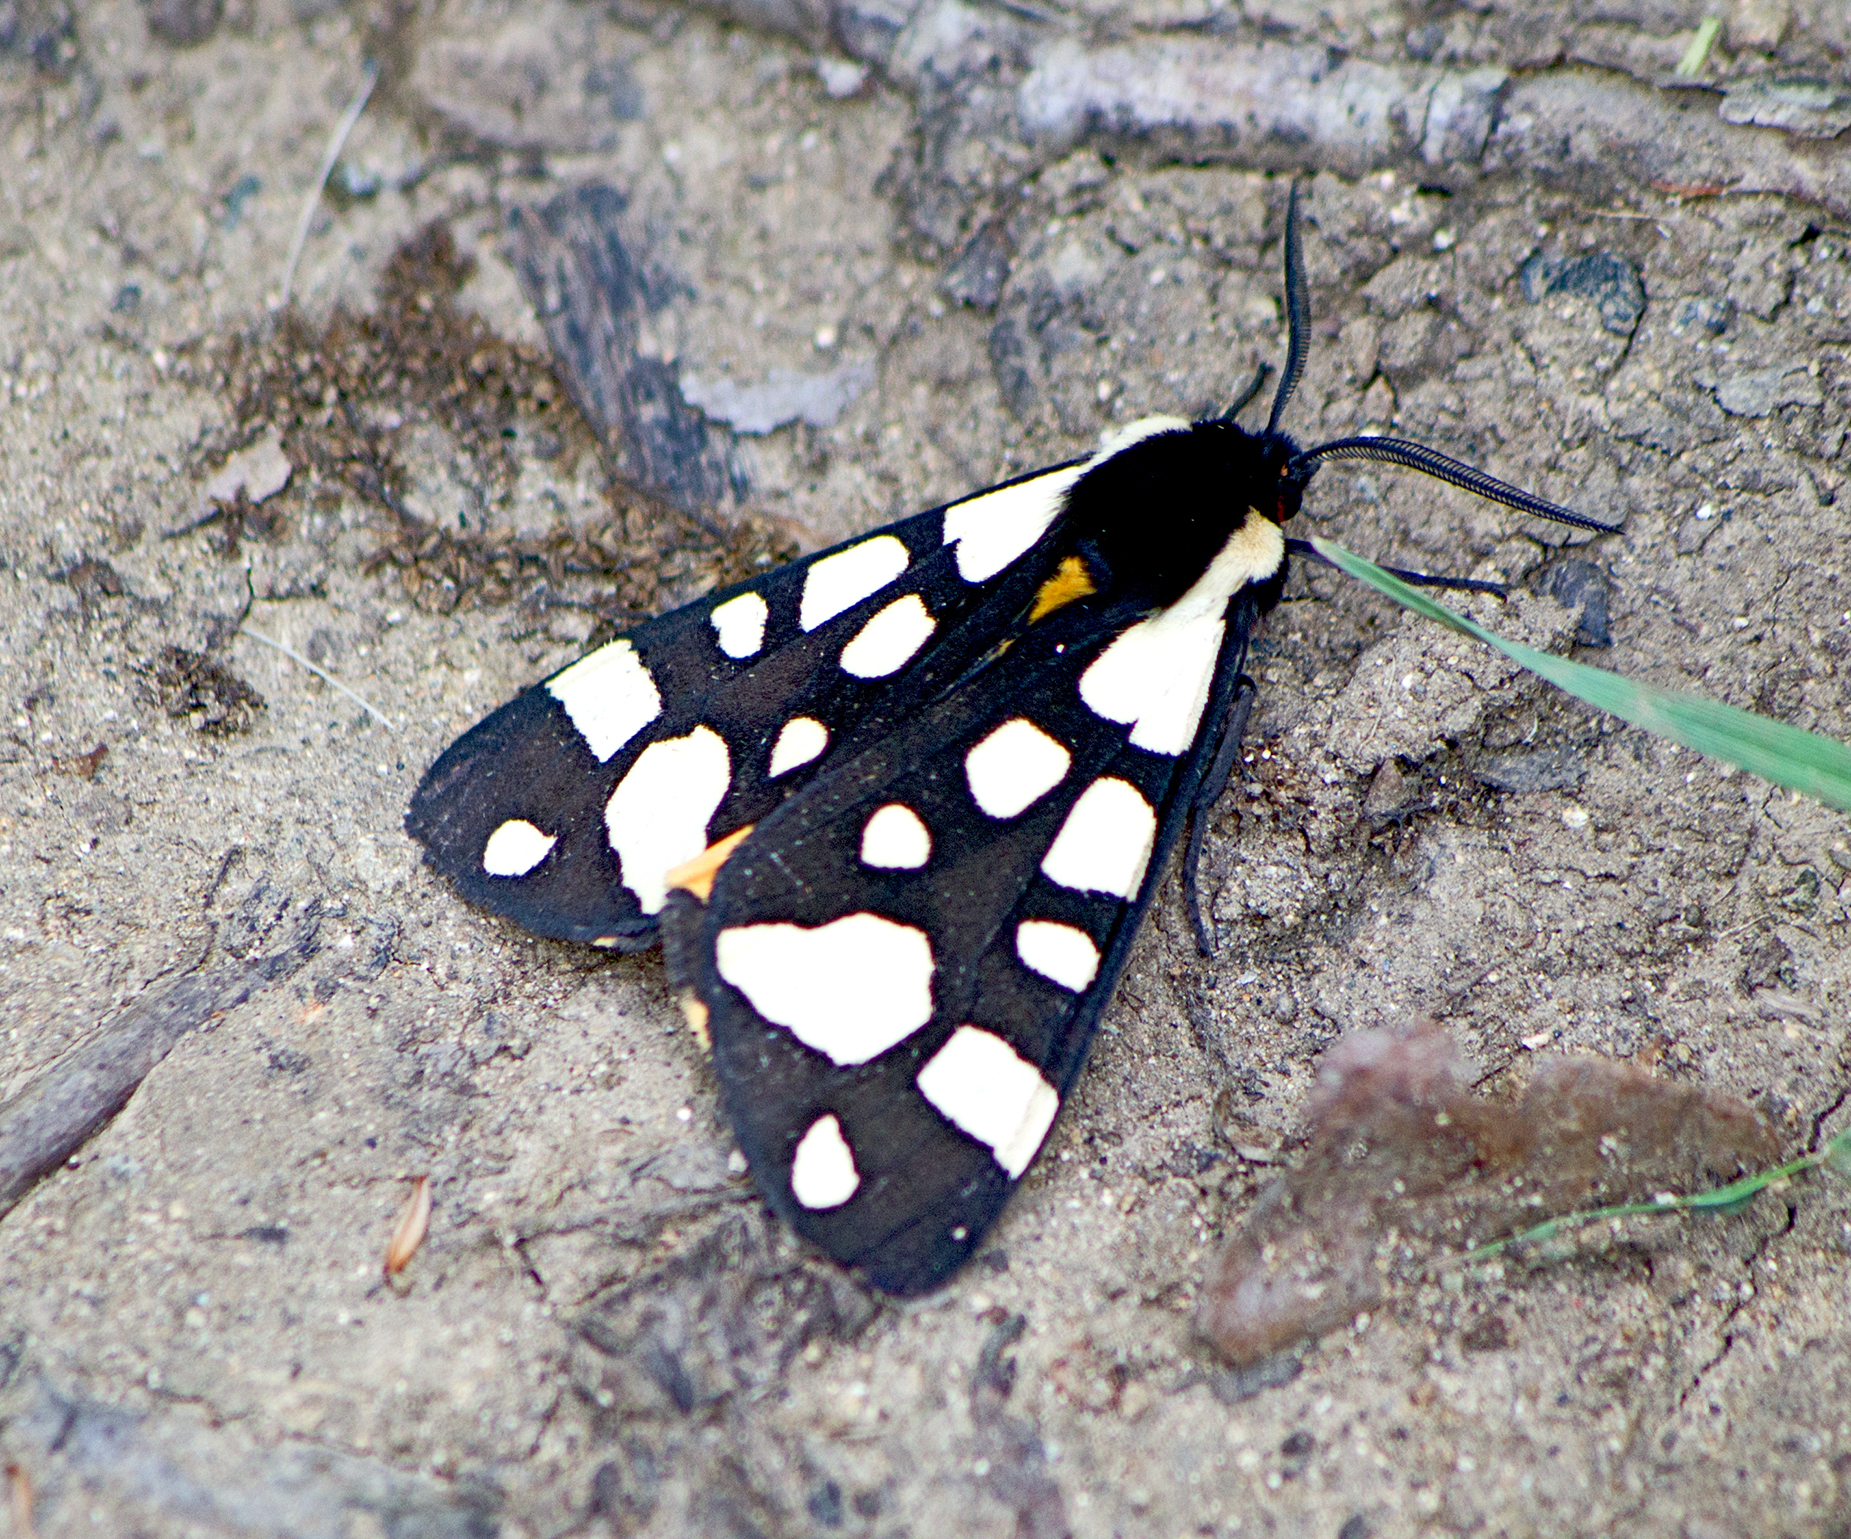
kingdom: Animalia
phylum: Arthropoda
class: Insecta
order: Lepidoptera
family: Erebidae
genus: Epicallia
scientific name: Epicallia villica
